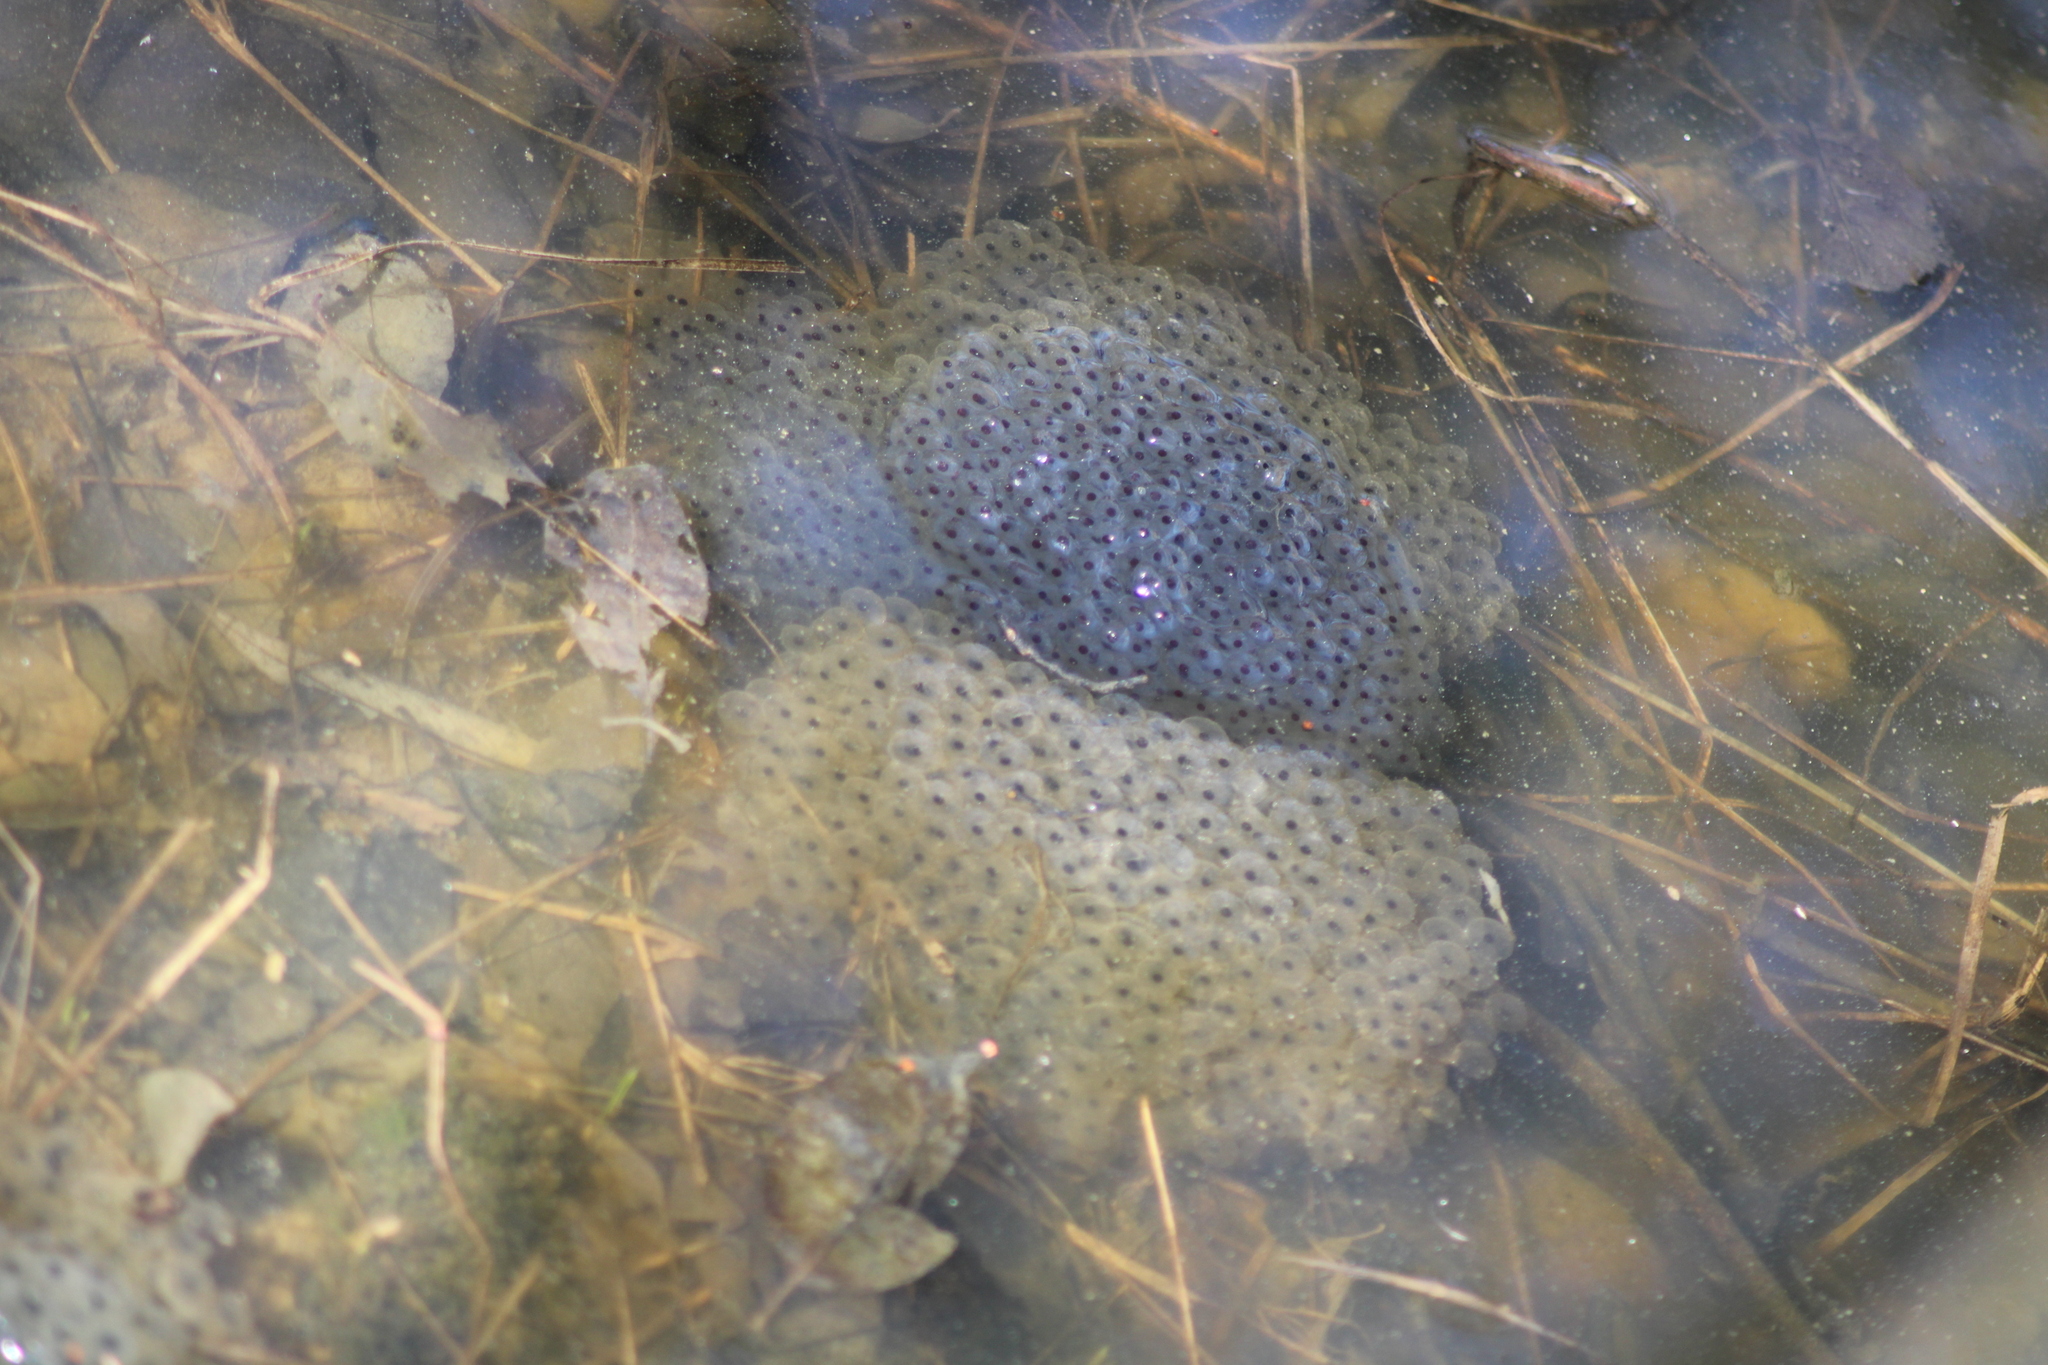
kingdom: Animalia
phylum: Chordata
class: Amphibia
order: Anura
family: Ranidae
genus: Rana
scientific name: Rana temporaria
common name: Common frog
